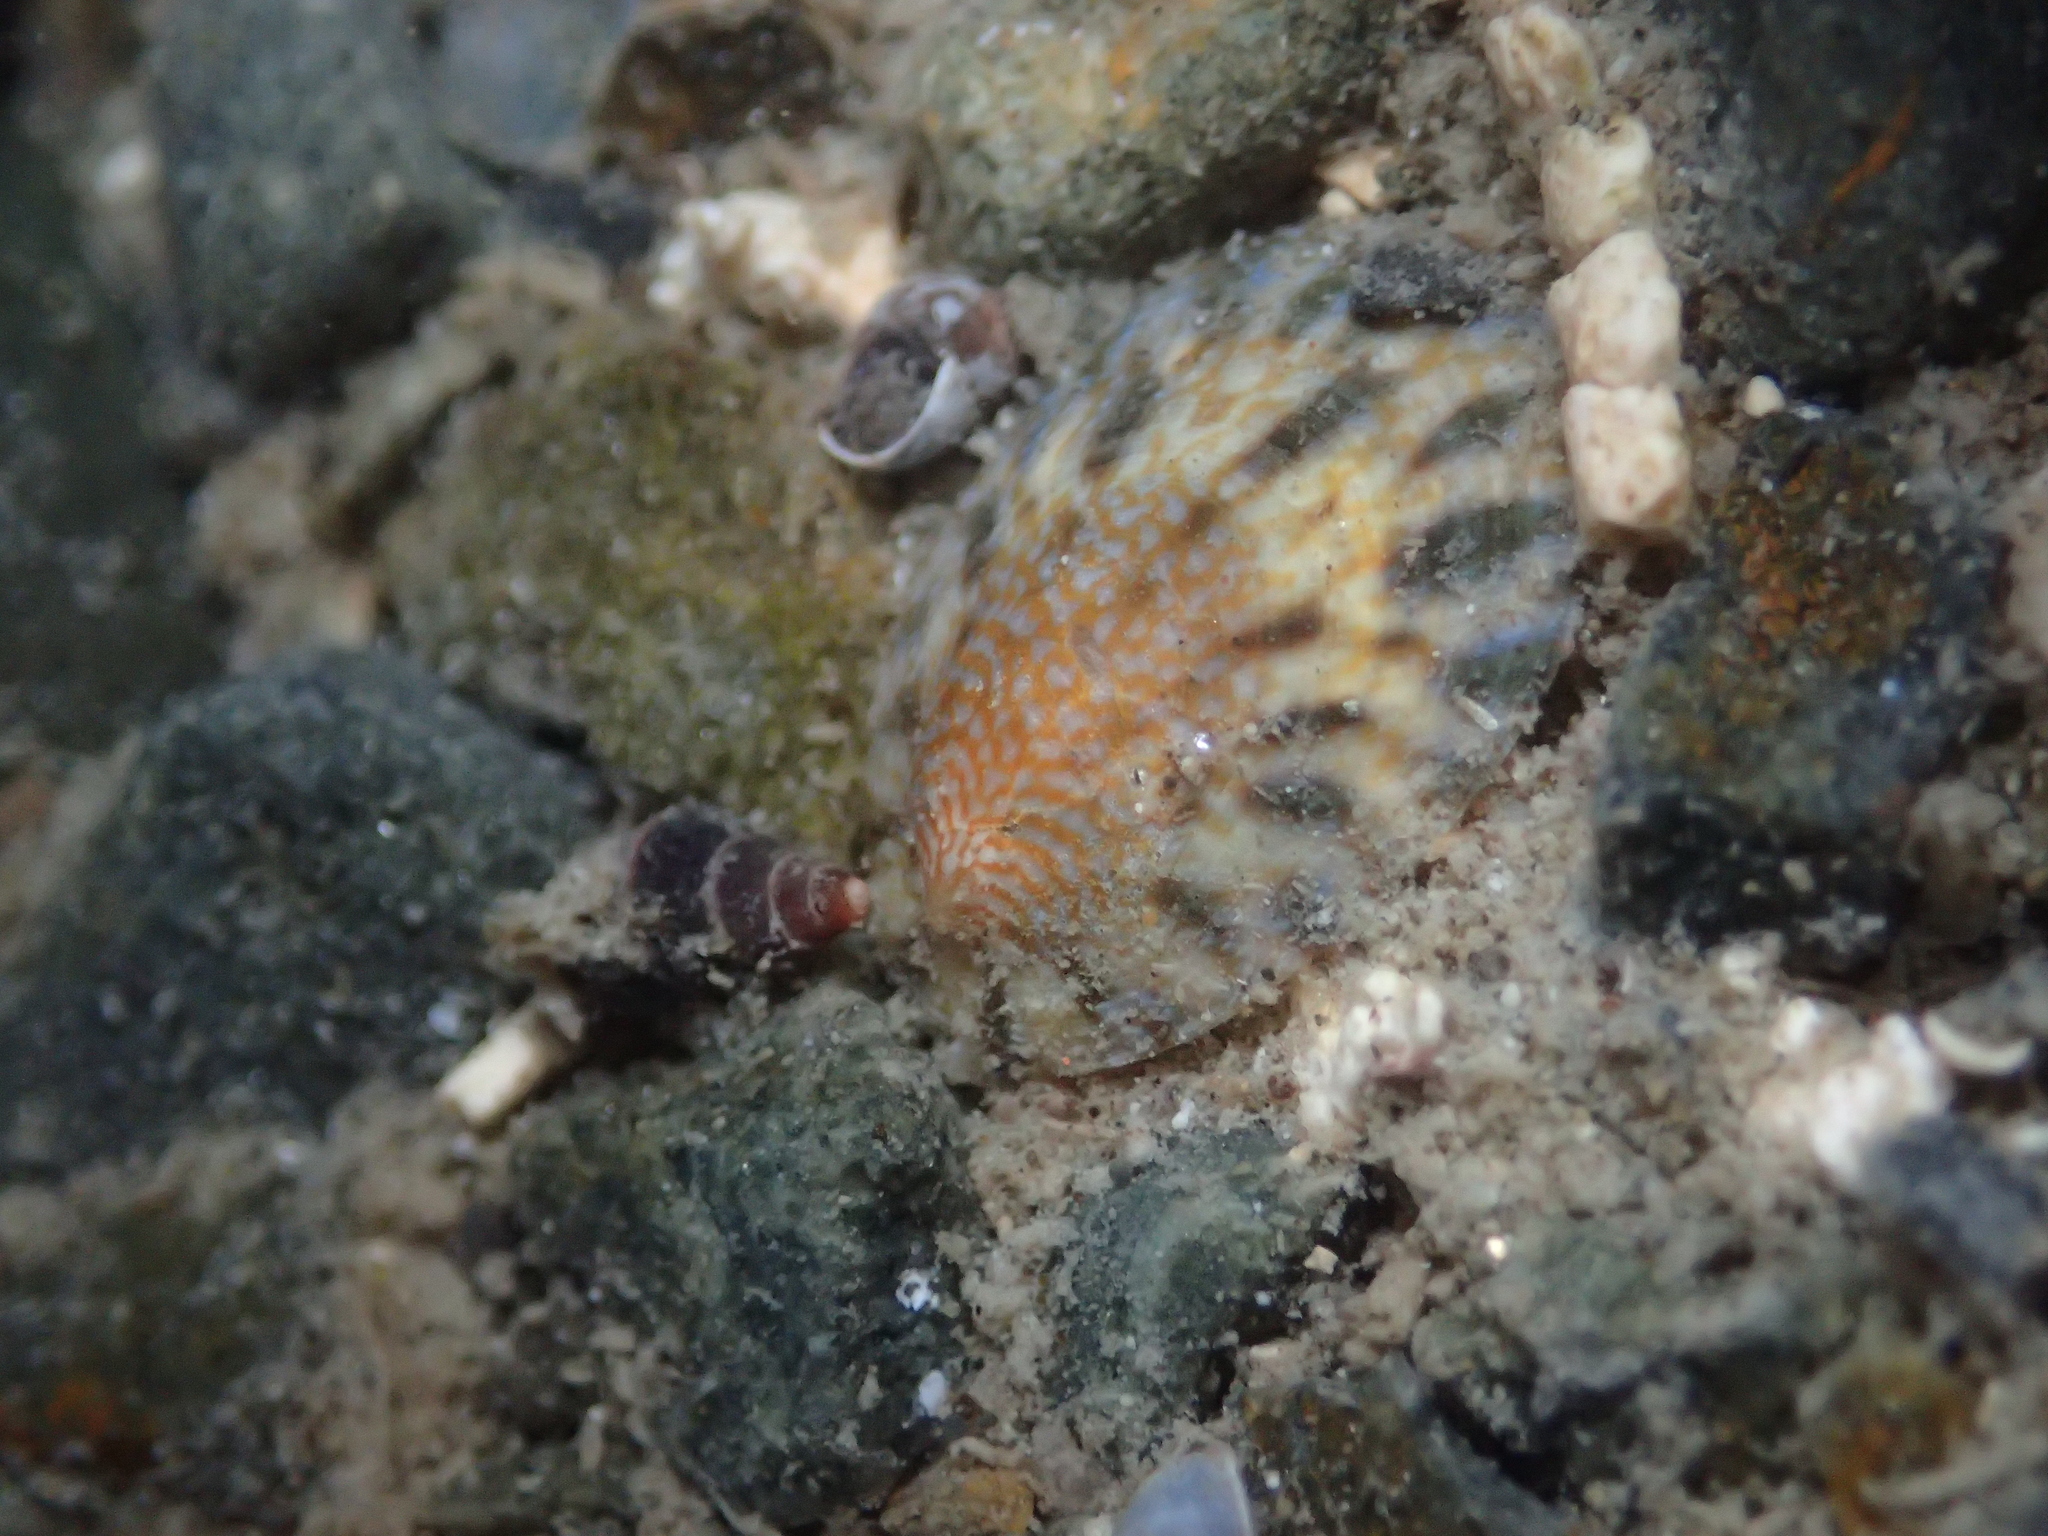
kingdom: Animalia
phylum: Mollusca
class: Gastropoda
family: Nacellidae
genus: Cellana
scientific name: Cellana radians
